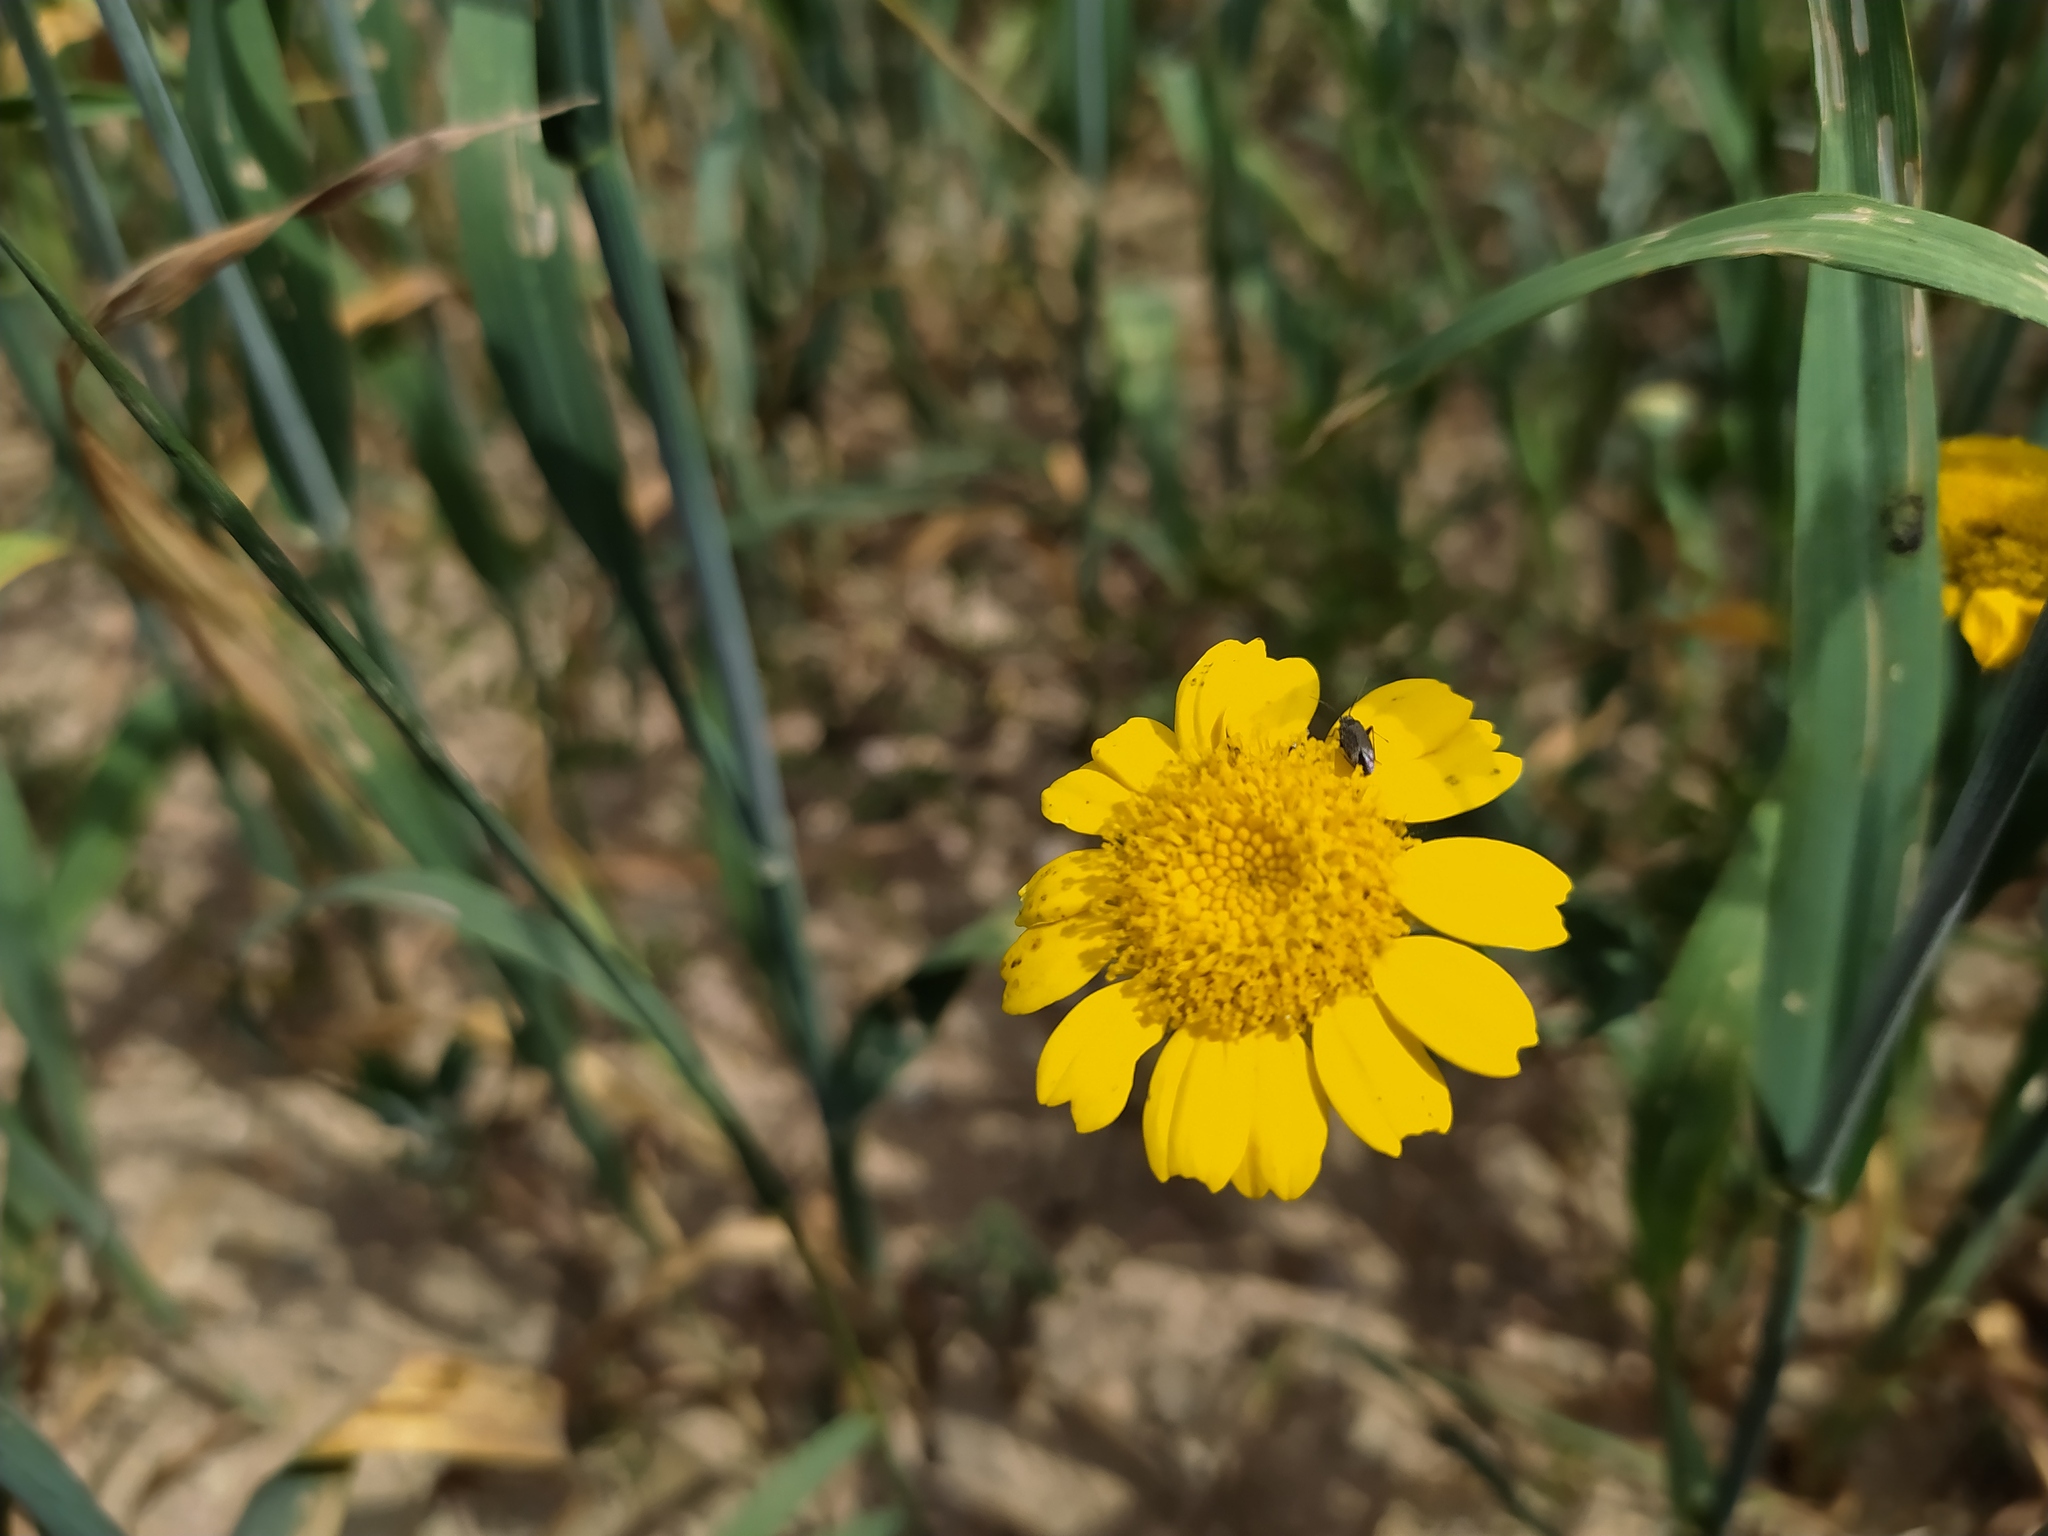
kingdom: Plantae
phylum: Tracheophyta
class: Magnoliopsida
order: Asterales
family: Asteraceae
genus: Glebionis
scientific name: Glebionis segetum
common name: Corndaisy
